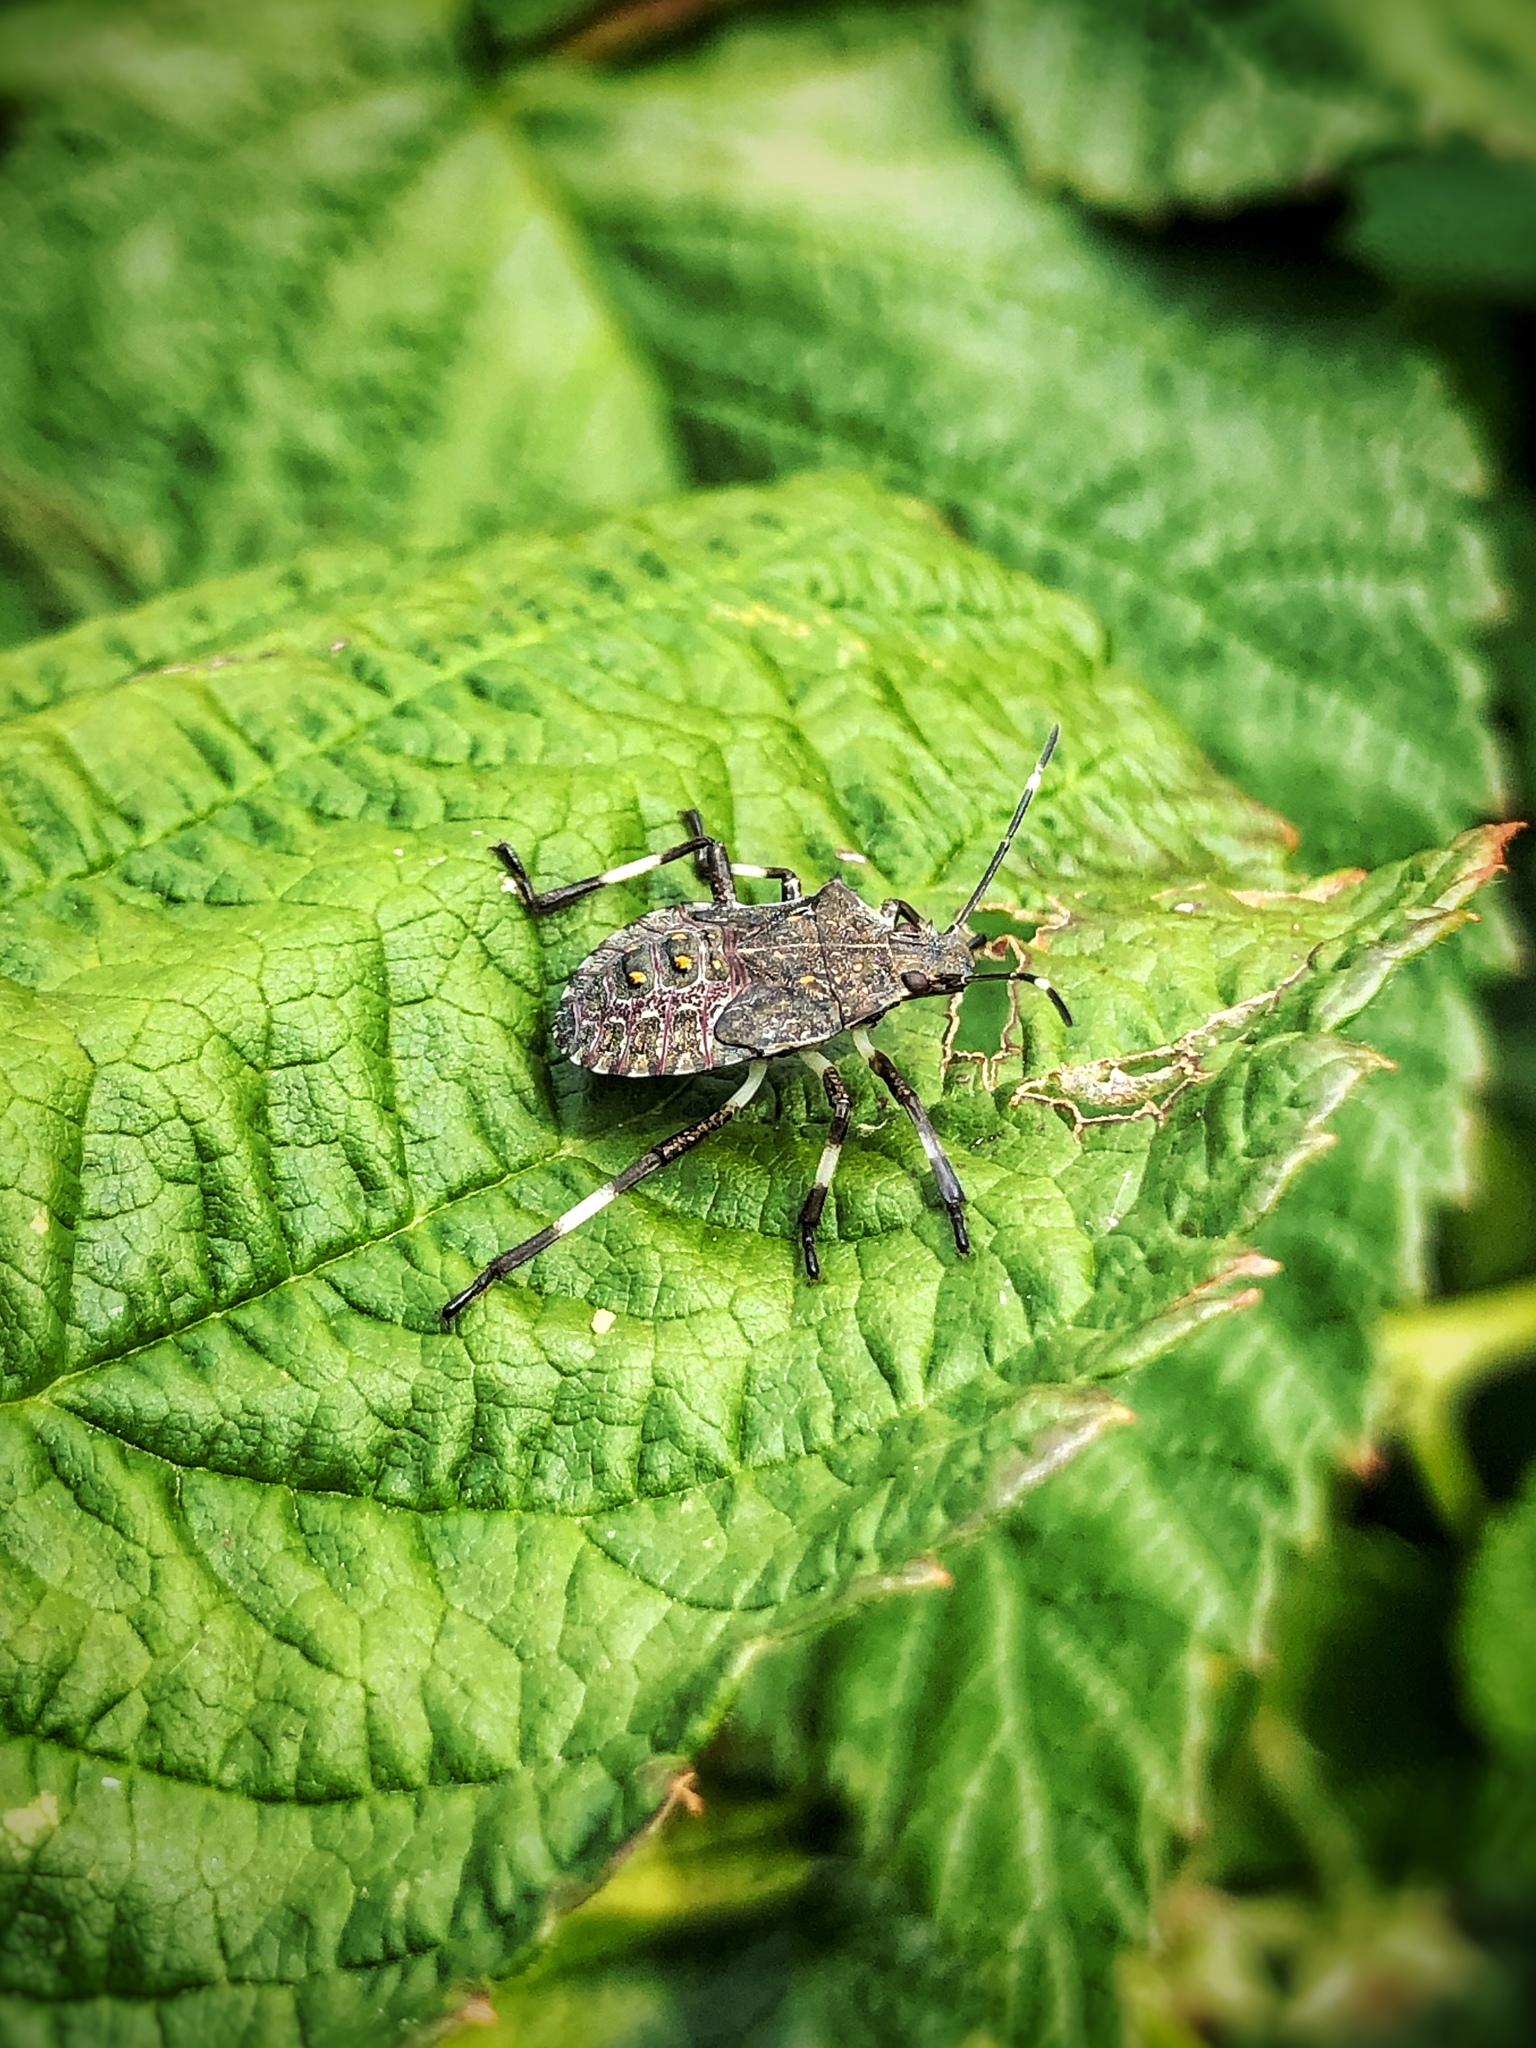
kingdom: Animalia
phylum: Arthropoda
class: Insecta
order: Hemiptera
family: Pentatomidae
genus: Halyomorpha
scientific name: Halyomorpha halys
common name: Brown marmorated stink bug
